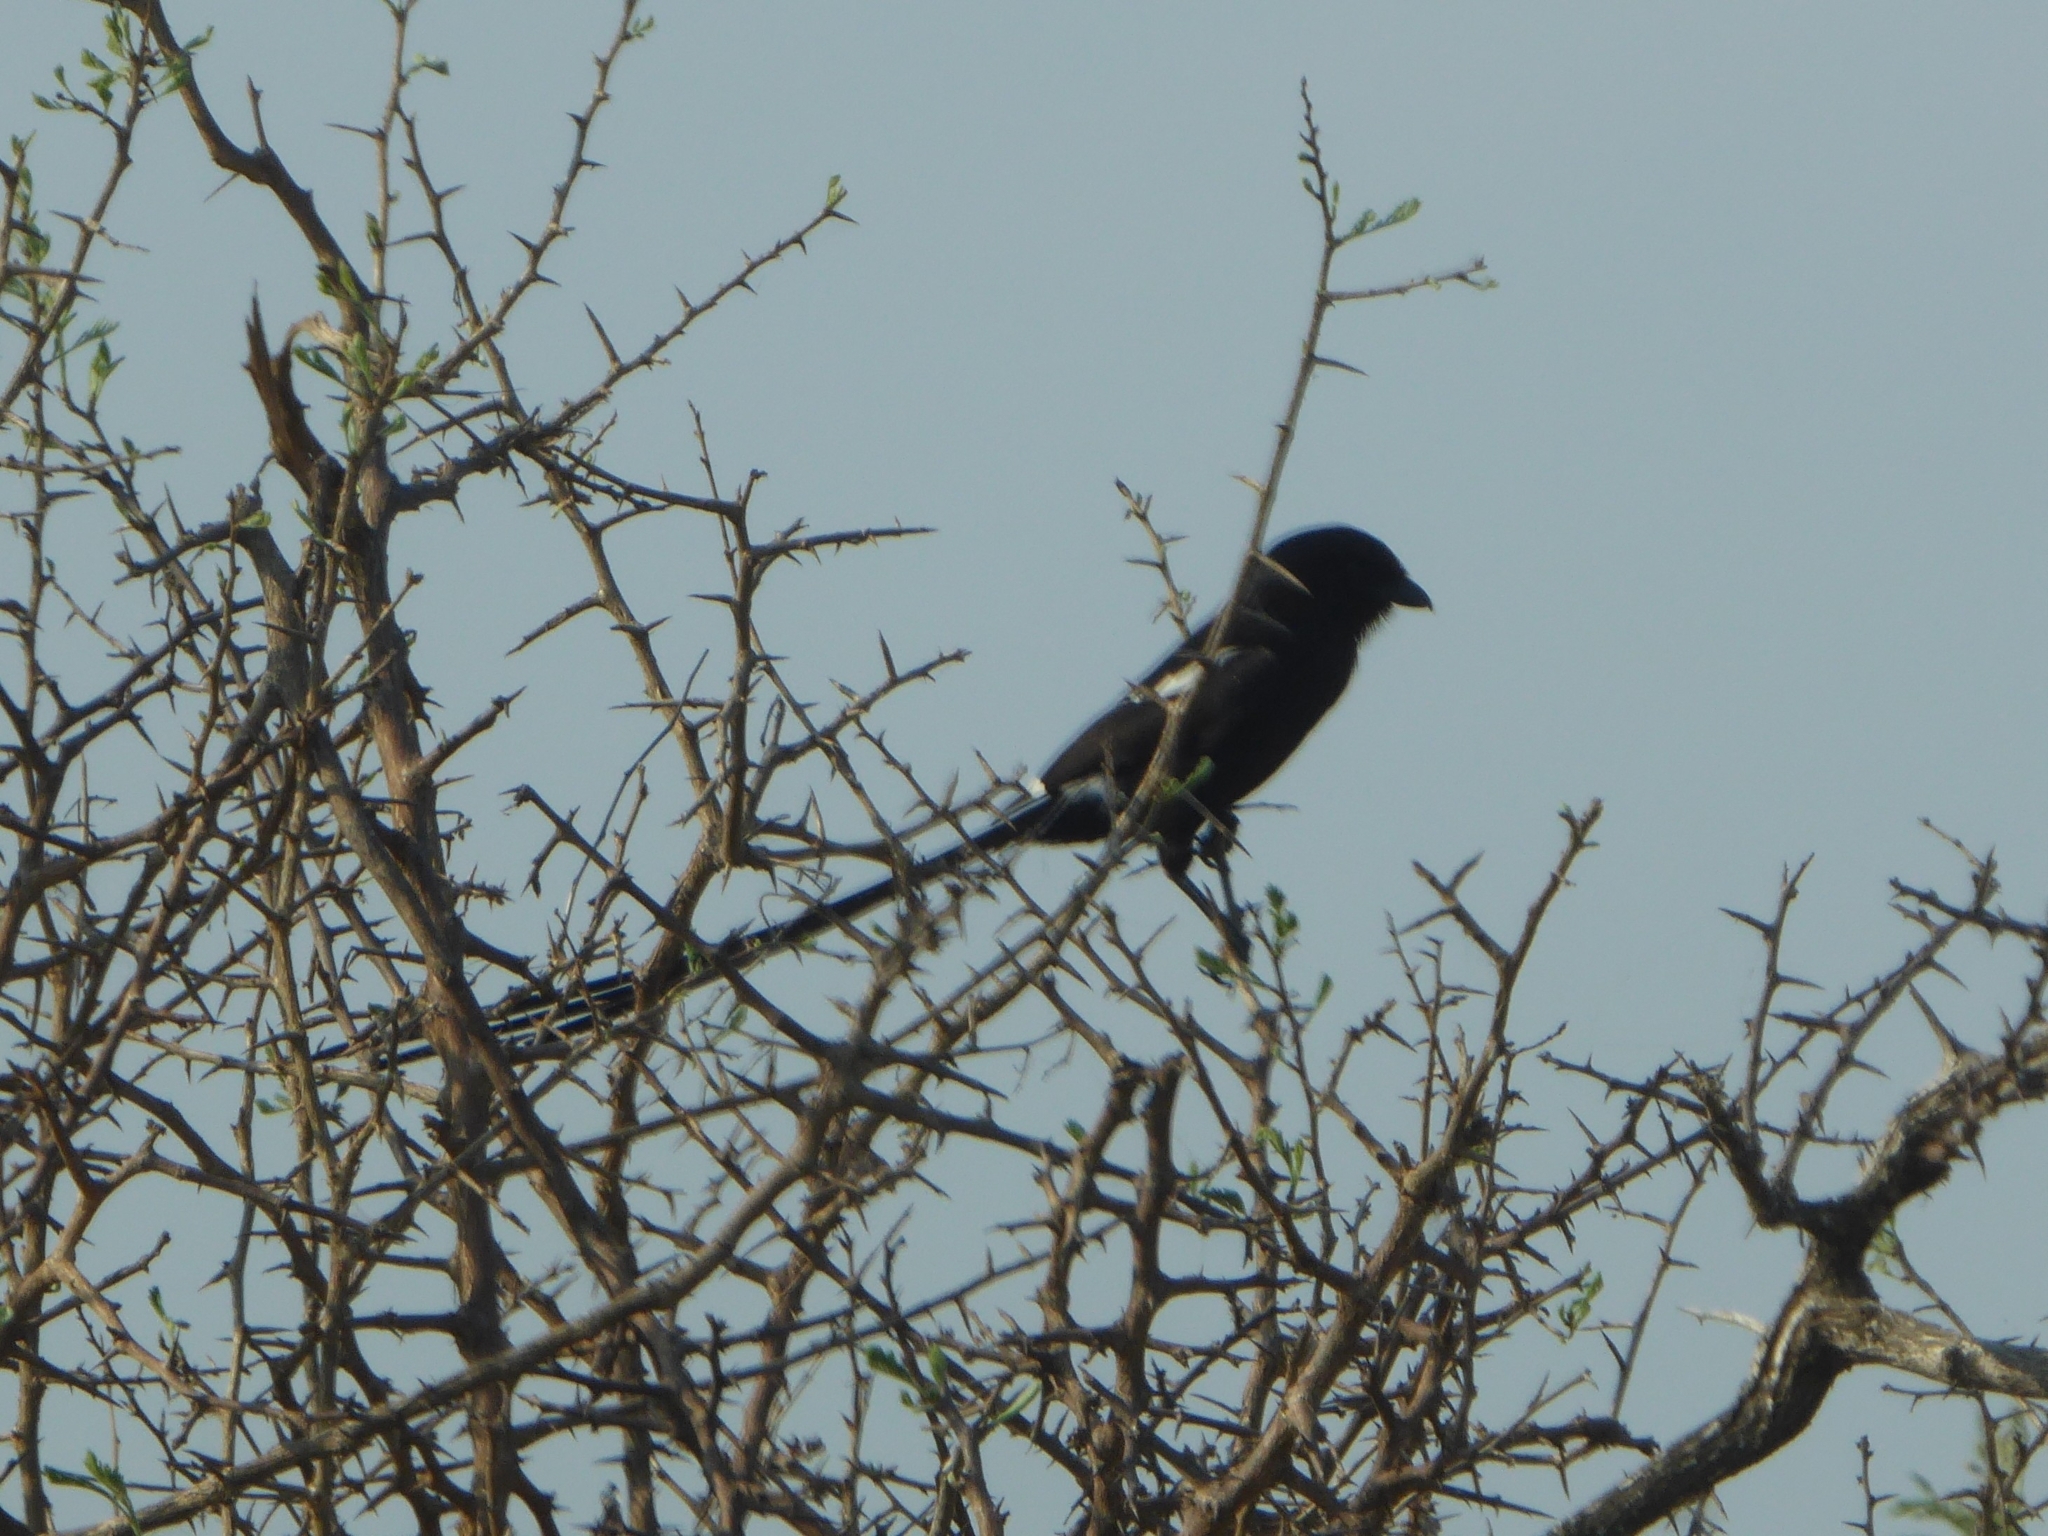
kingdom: Animalia
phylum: Chordata
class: Aves
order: Passeriformes
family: Laniidae
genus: Urolestes
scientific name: Urolestes melanoleucus
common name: Magpie shrike
